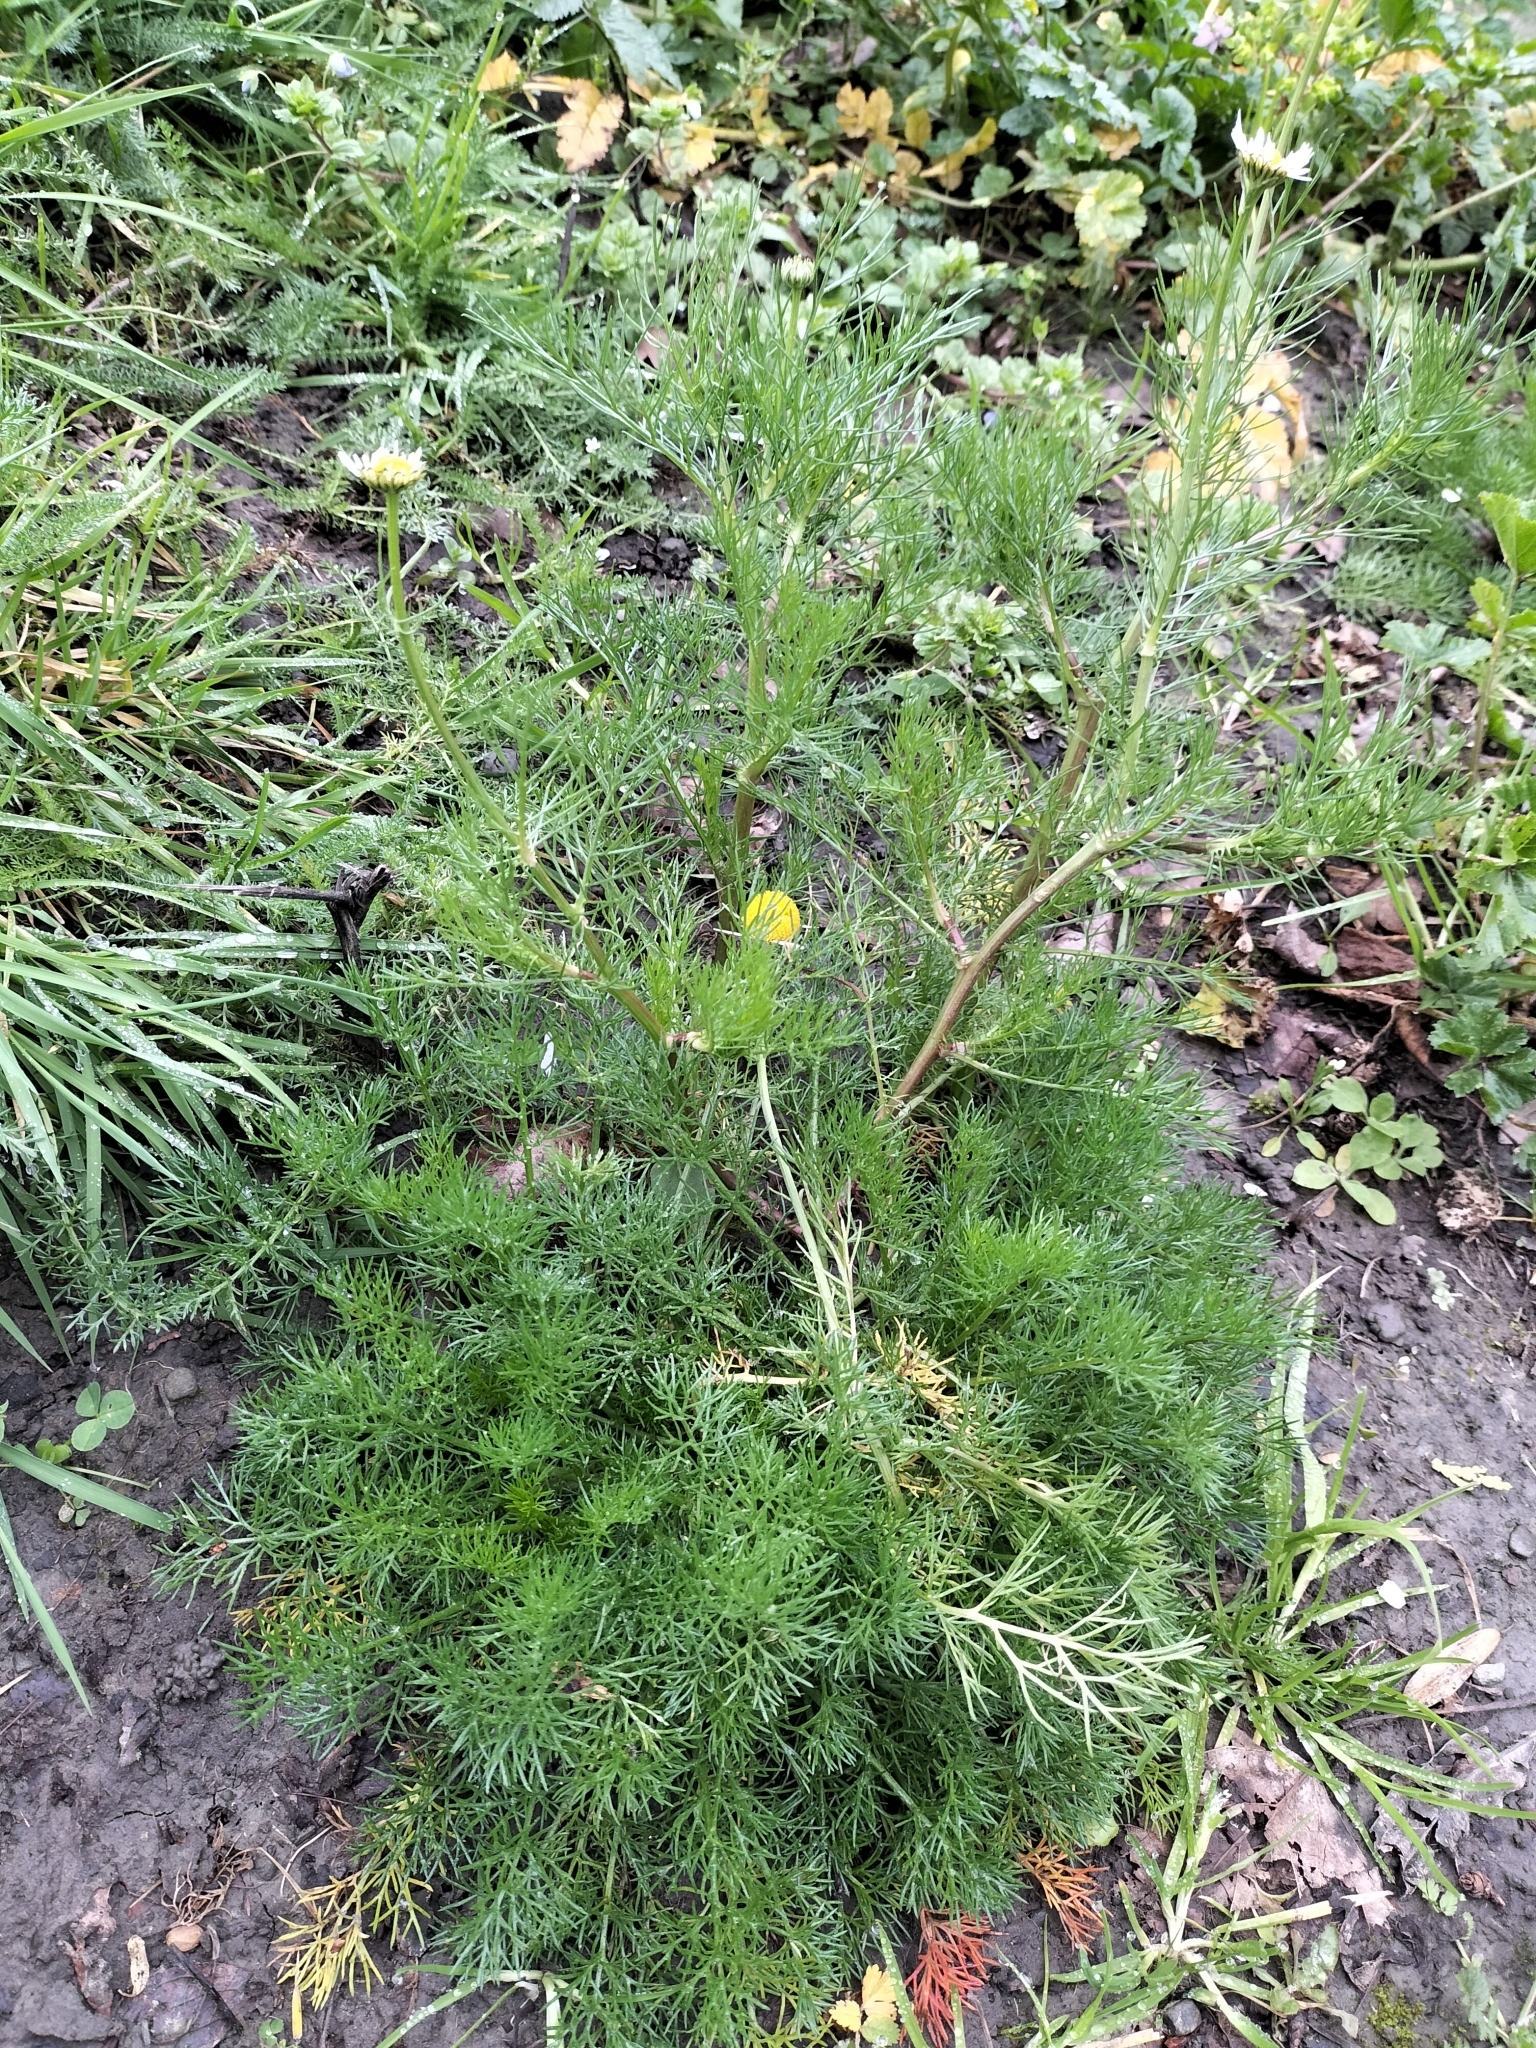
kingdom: Plantae
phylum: Tracheophyta
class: Magnoliopsida
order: Asterales
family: Asteraceae
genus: Tripleurospermum
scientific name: Tripleurospermum maritimum
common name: Sea mayweed
